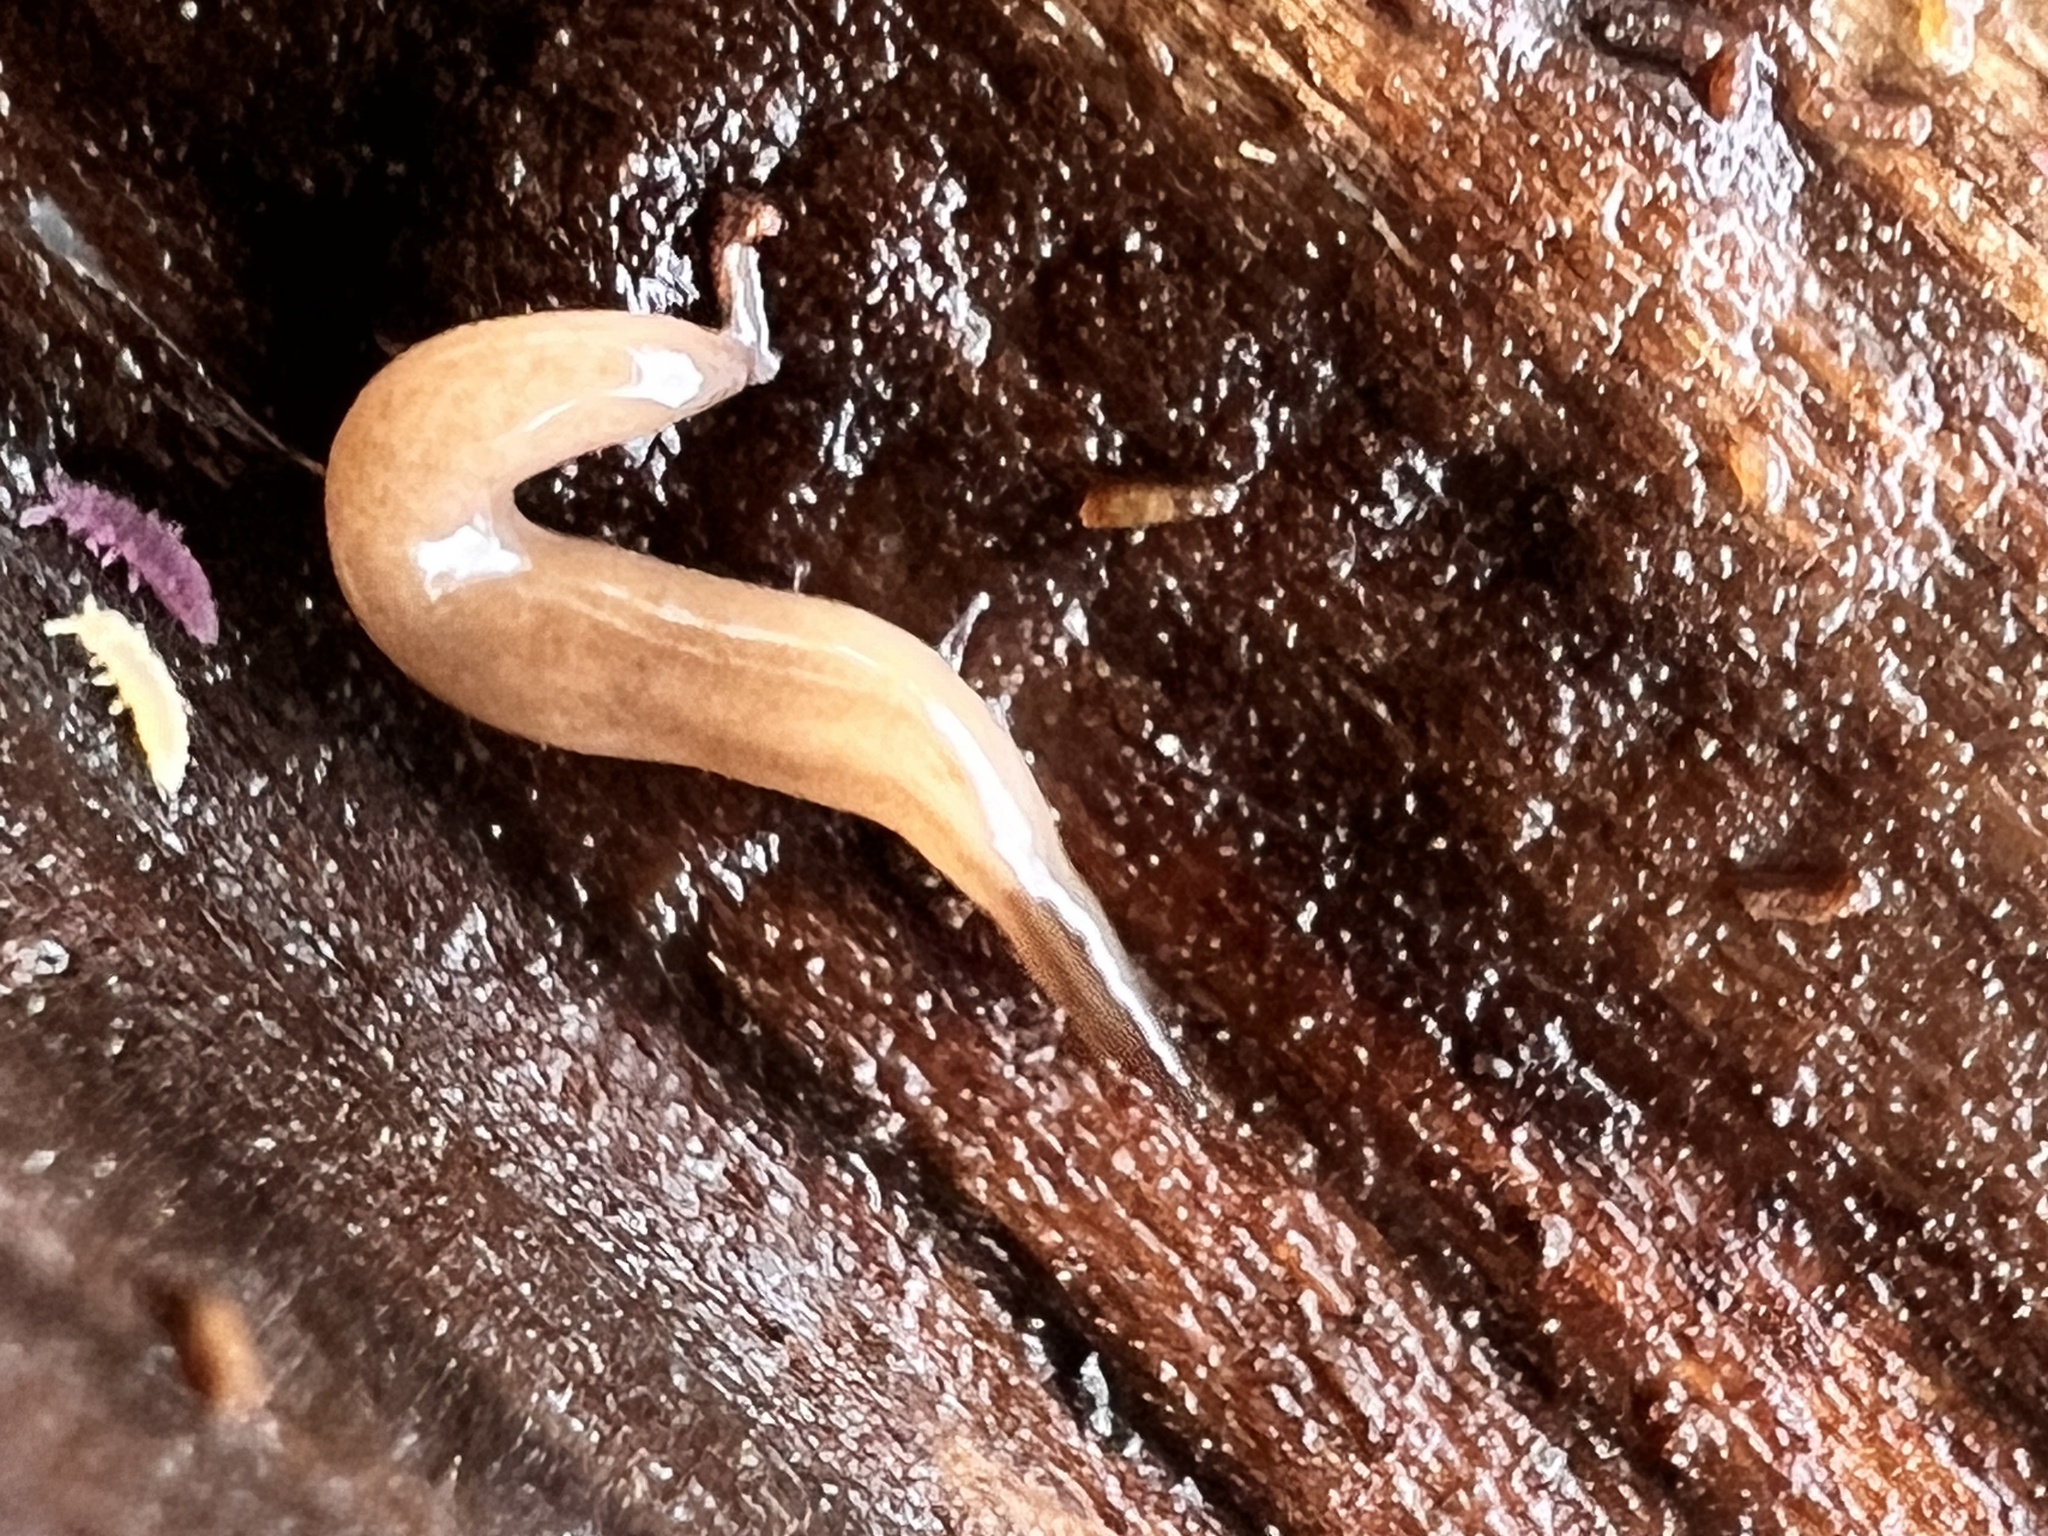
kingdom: Animalia
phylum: Platyhelminthes
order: Tricladida
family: Geoplanidae
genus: Rhynchodemus
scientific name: Rhynchodemus sylvaticus
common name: A flatworm
